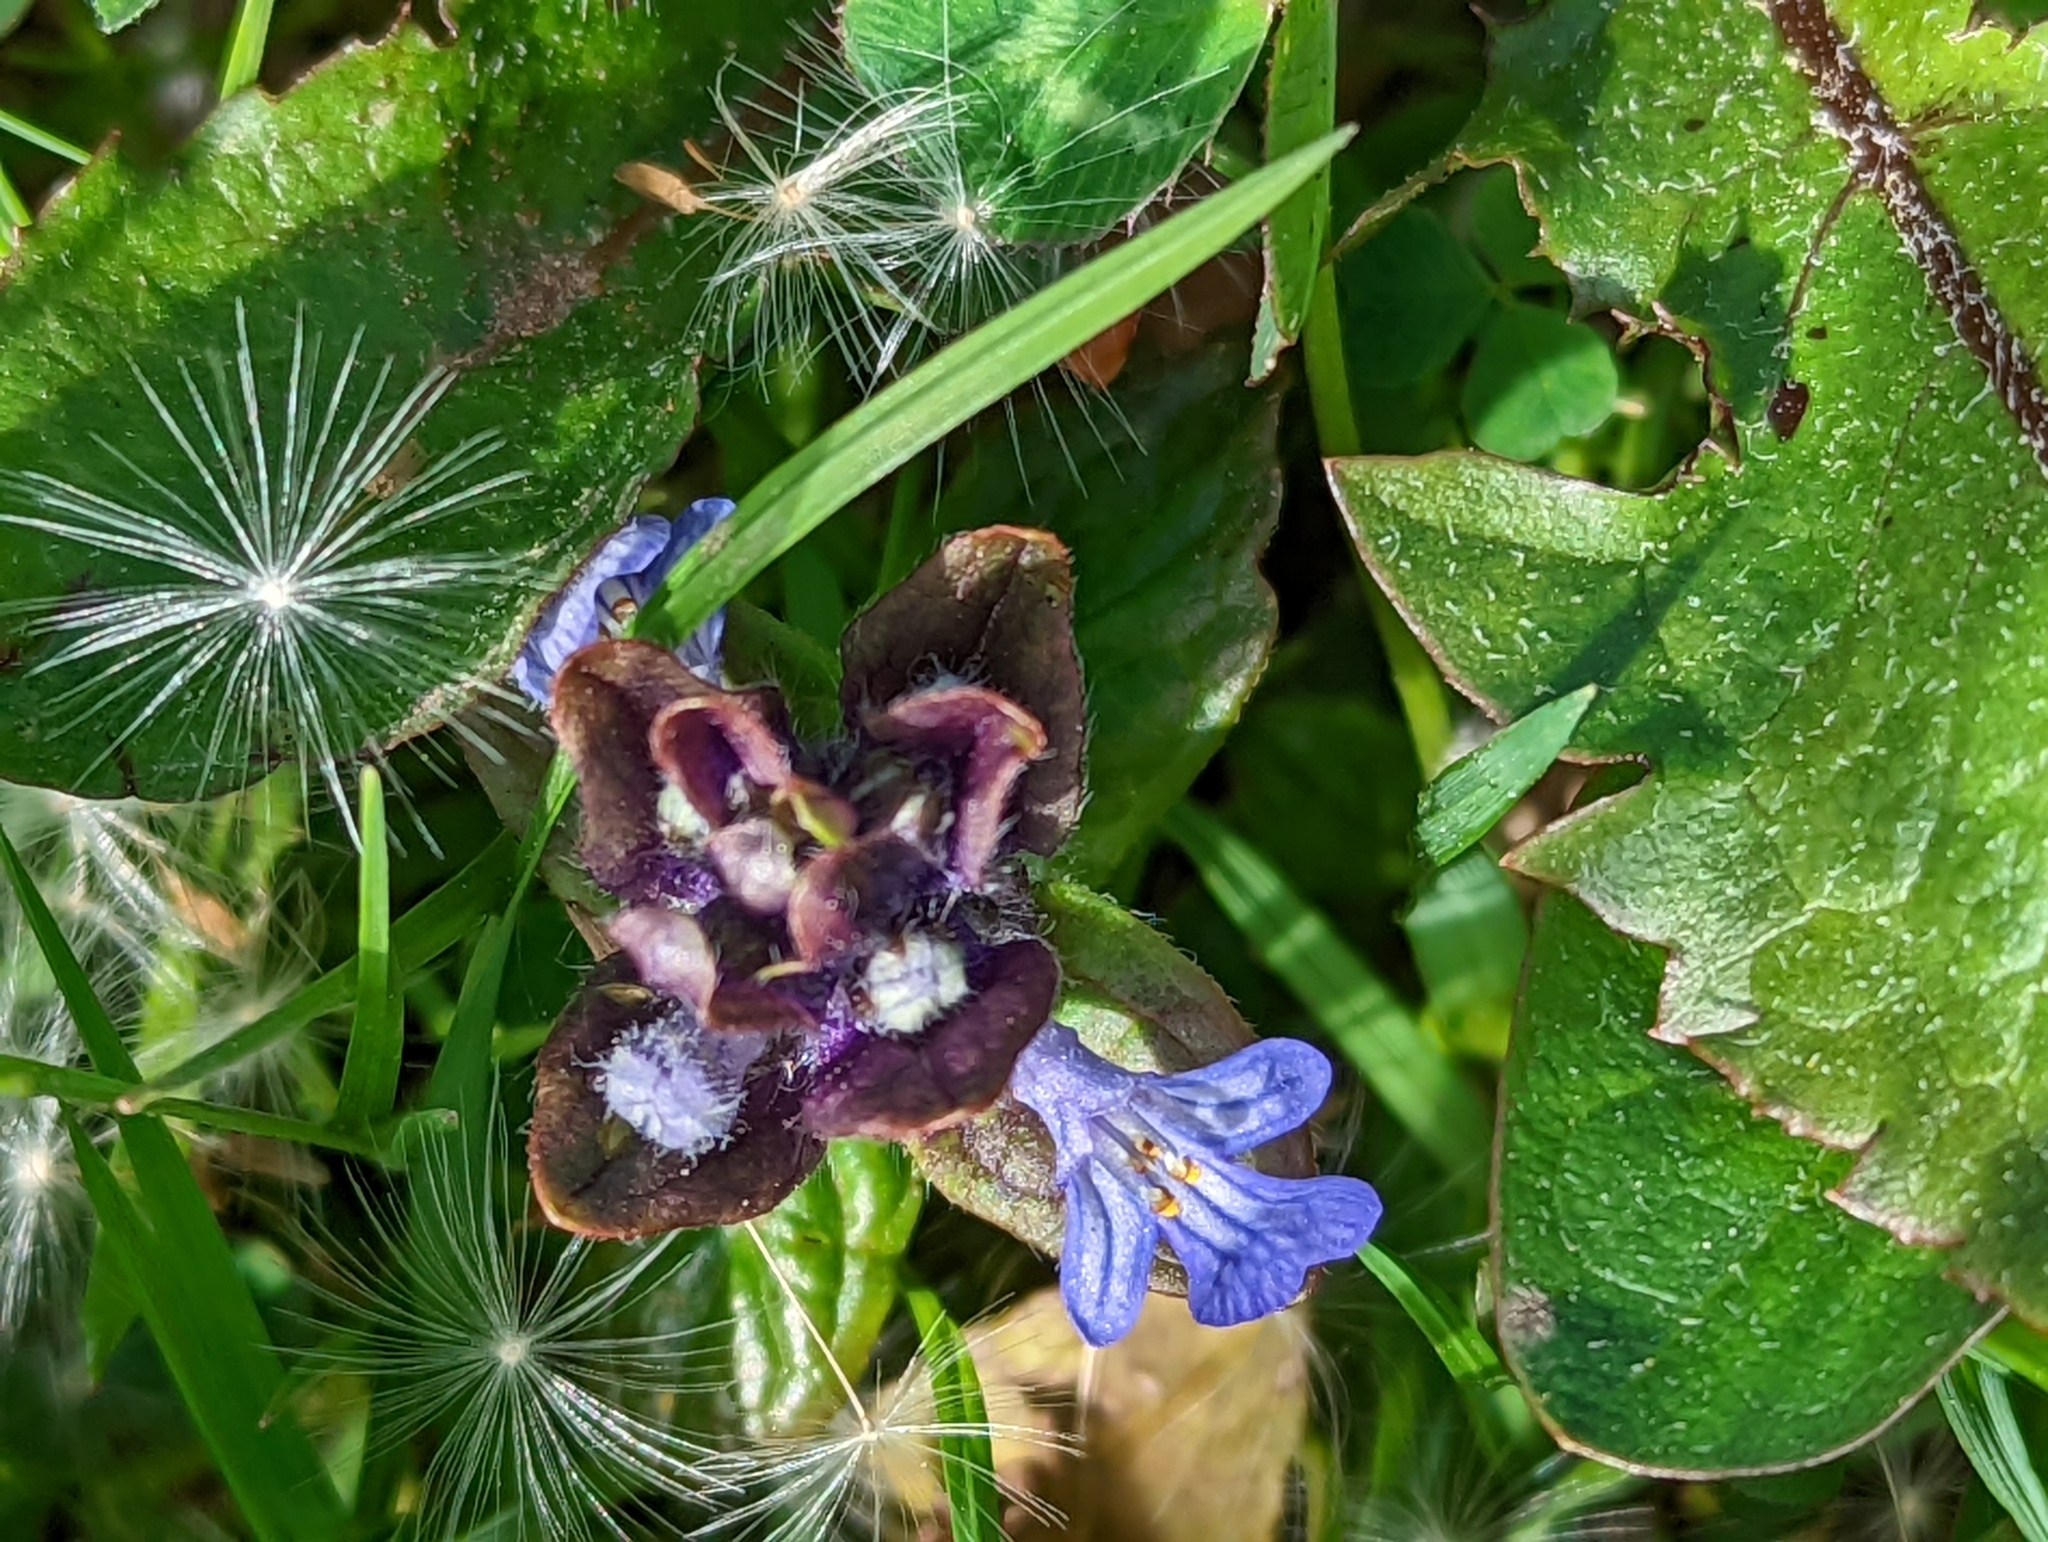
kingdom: Plantae
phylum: Tracheophyta
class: Magnoliopsida
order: Lamiales
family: Lamiaceae
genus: Ajuga
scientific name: Ajuga reptans
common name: Bugle
